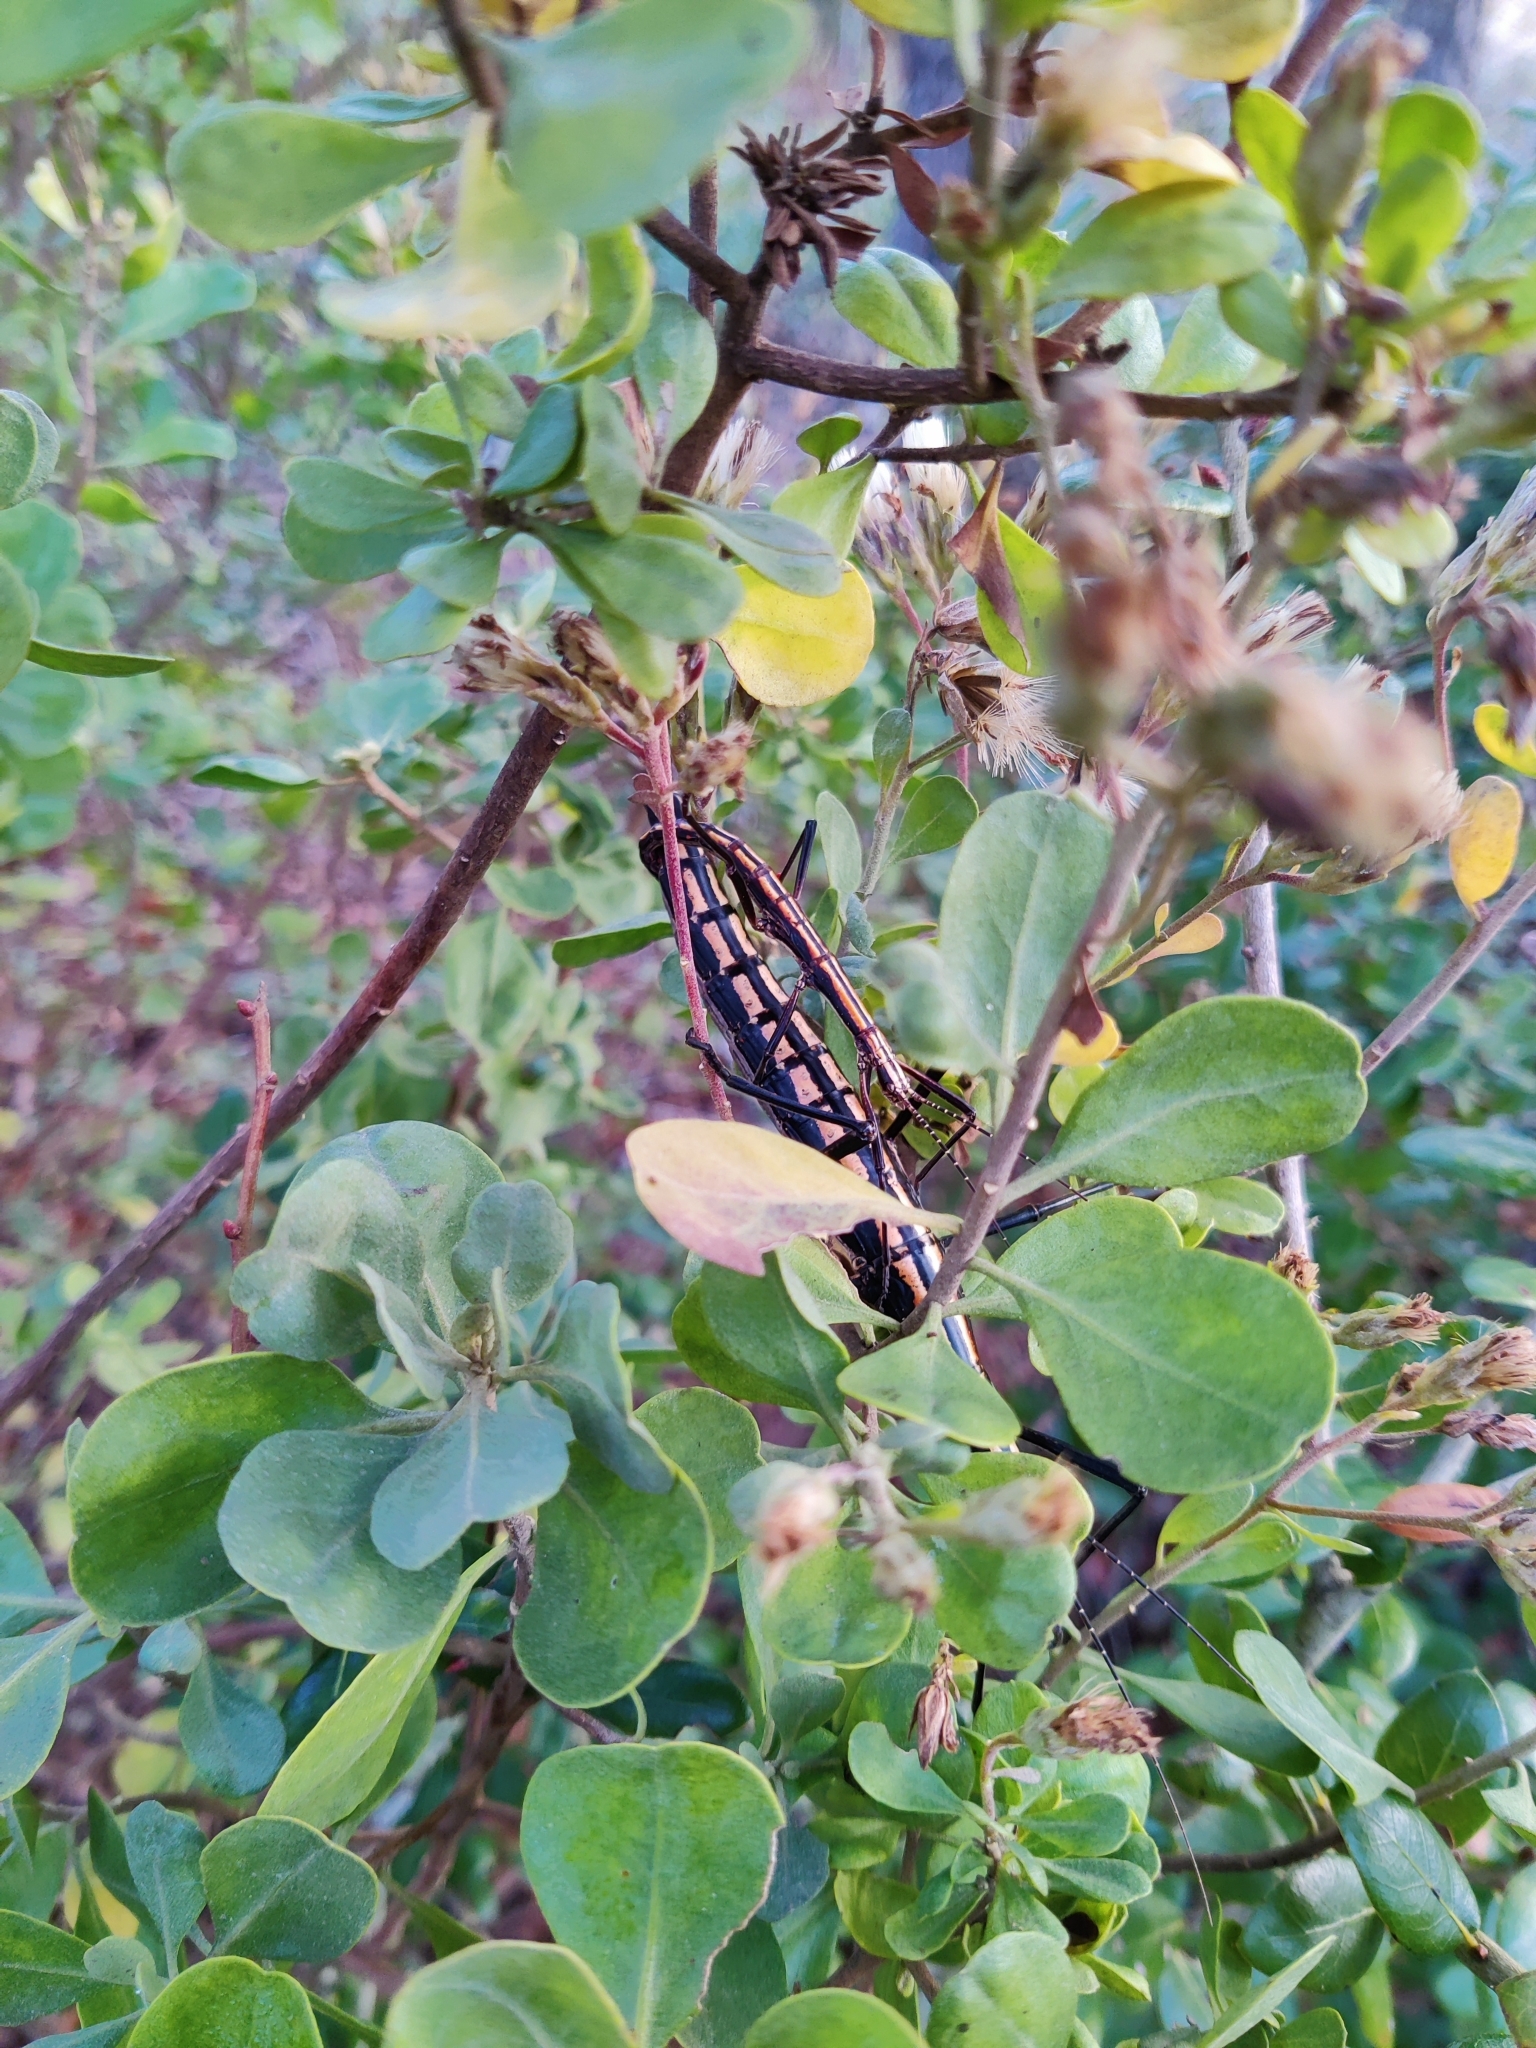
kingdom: Animalia
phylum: Arthropoda
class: Insecta
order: Phasmida
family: Pseudophasmatidae
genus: Anisomorpha
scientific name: Anisomorpha buprestoides
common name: Florida stick insect
